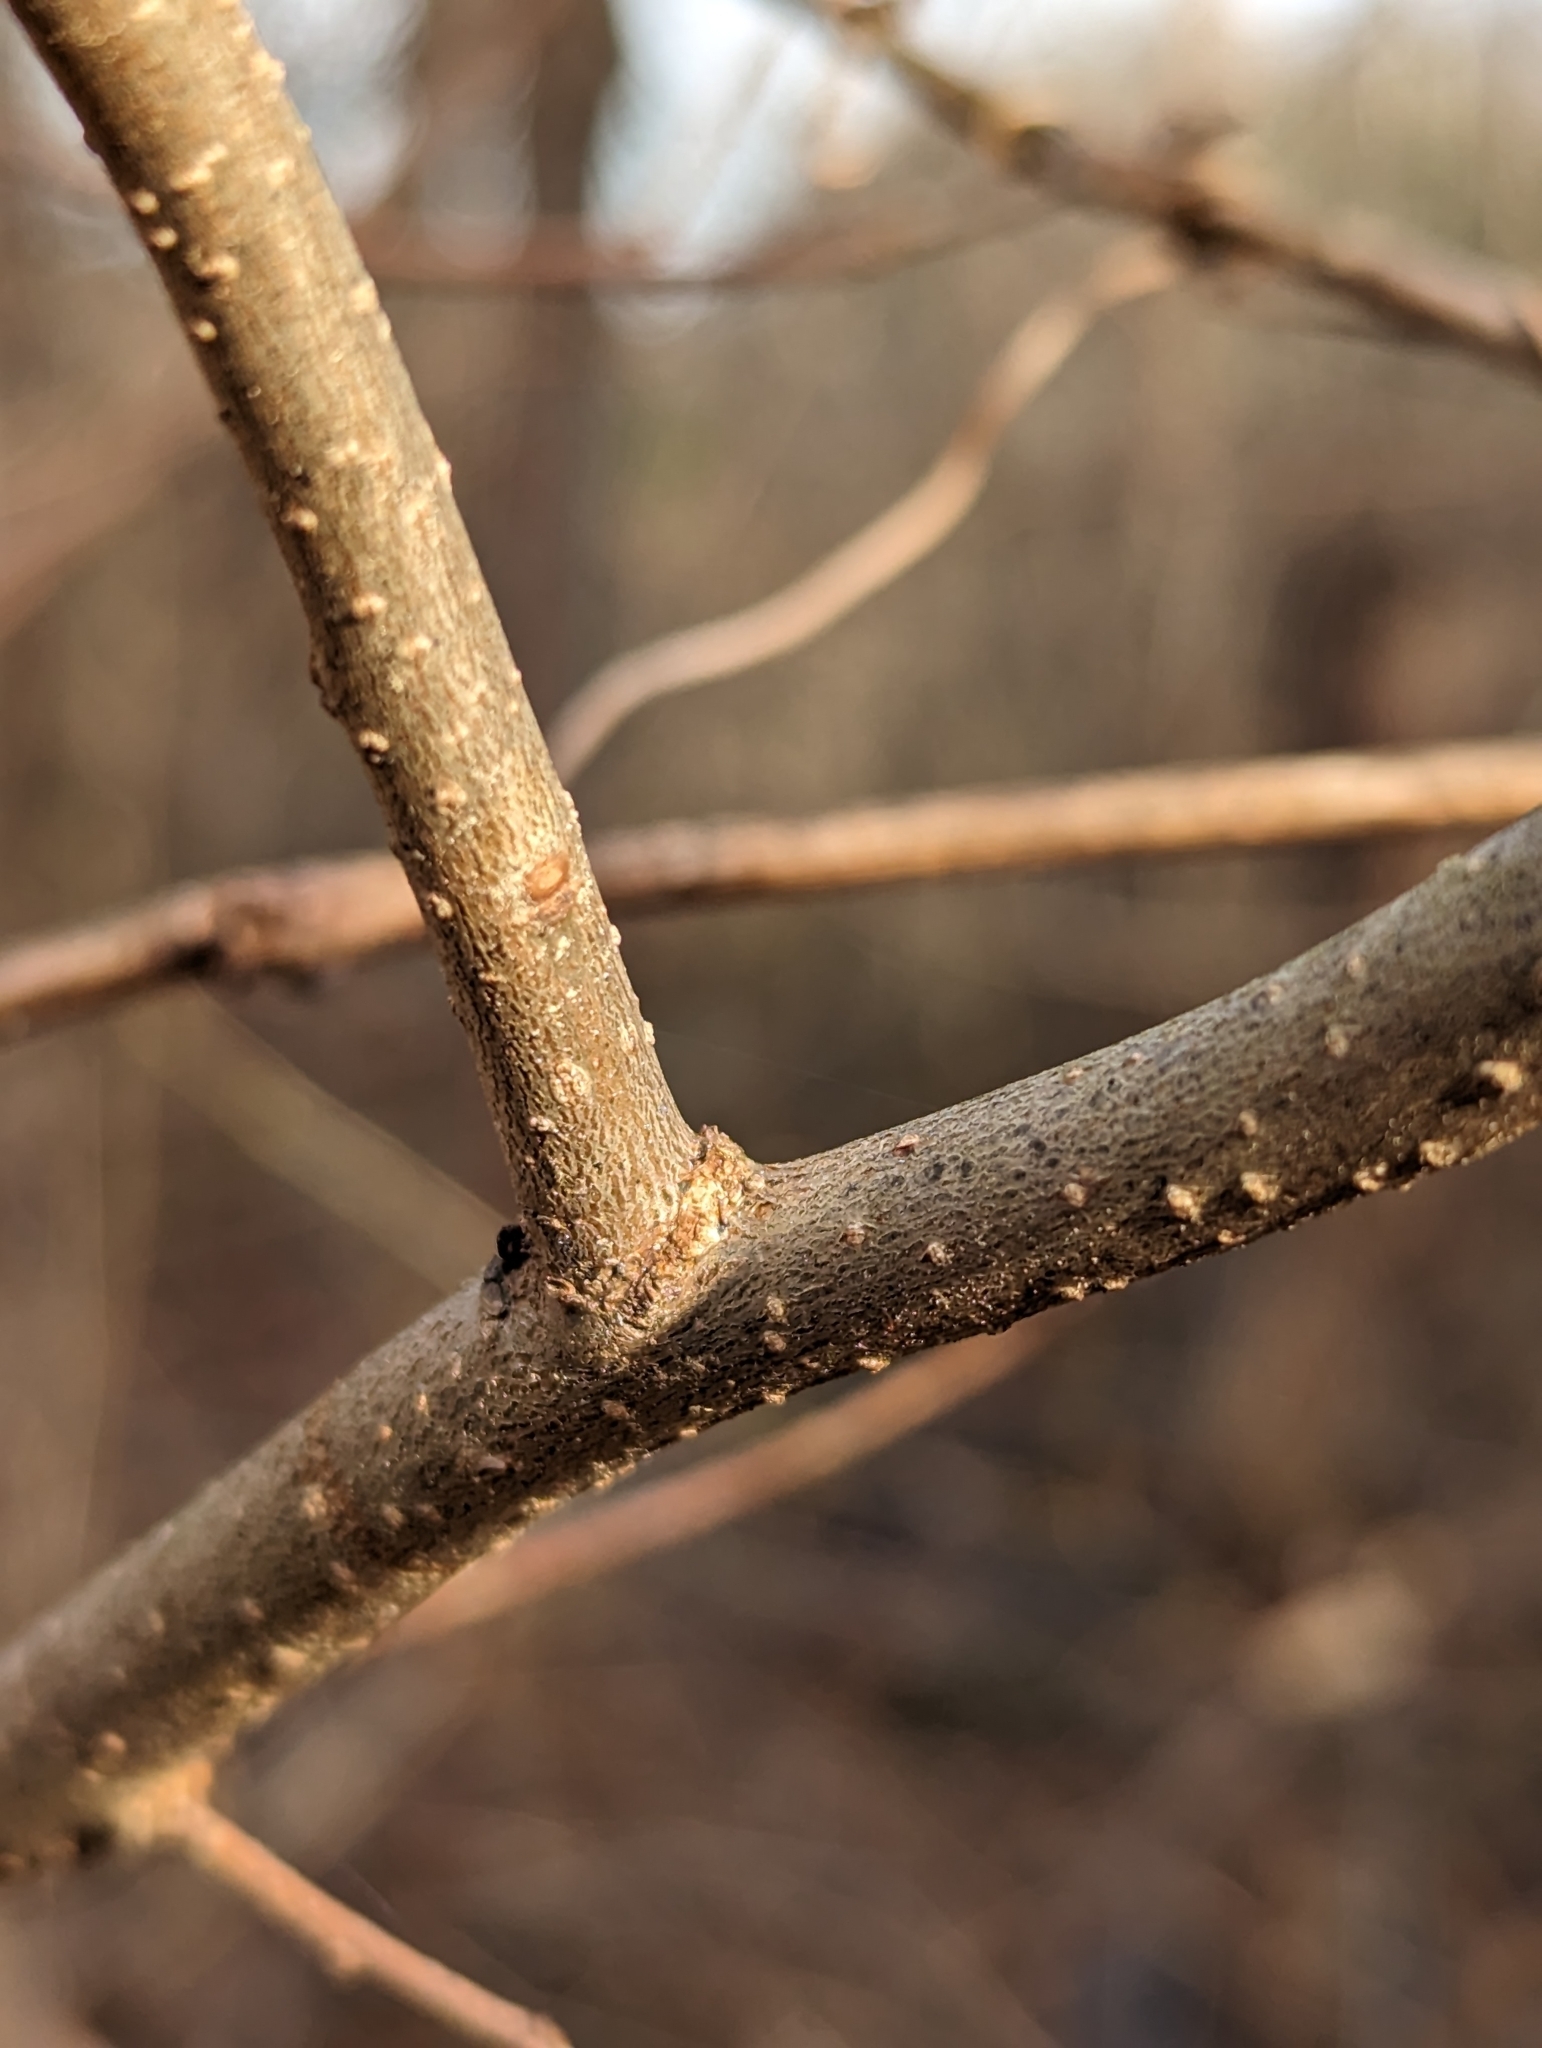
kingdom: Plantae
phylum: Tracheophyta
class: Magnoliopsida
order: Laurales
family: Lauraceae
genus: Lindera
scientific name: Lindera benzoin
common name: Spicebush
